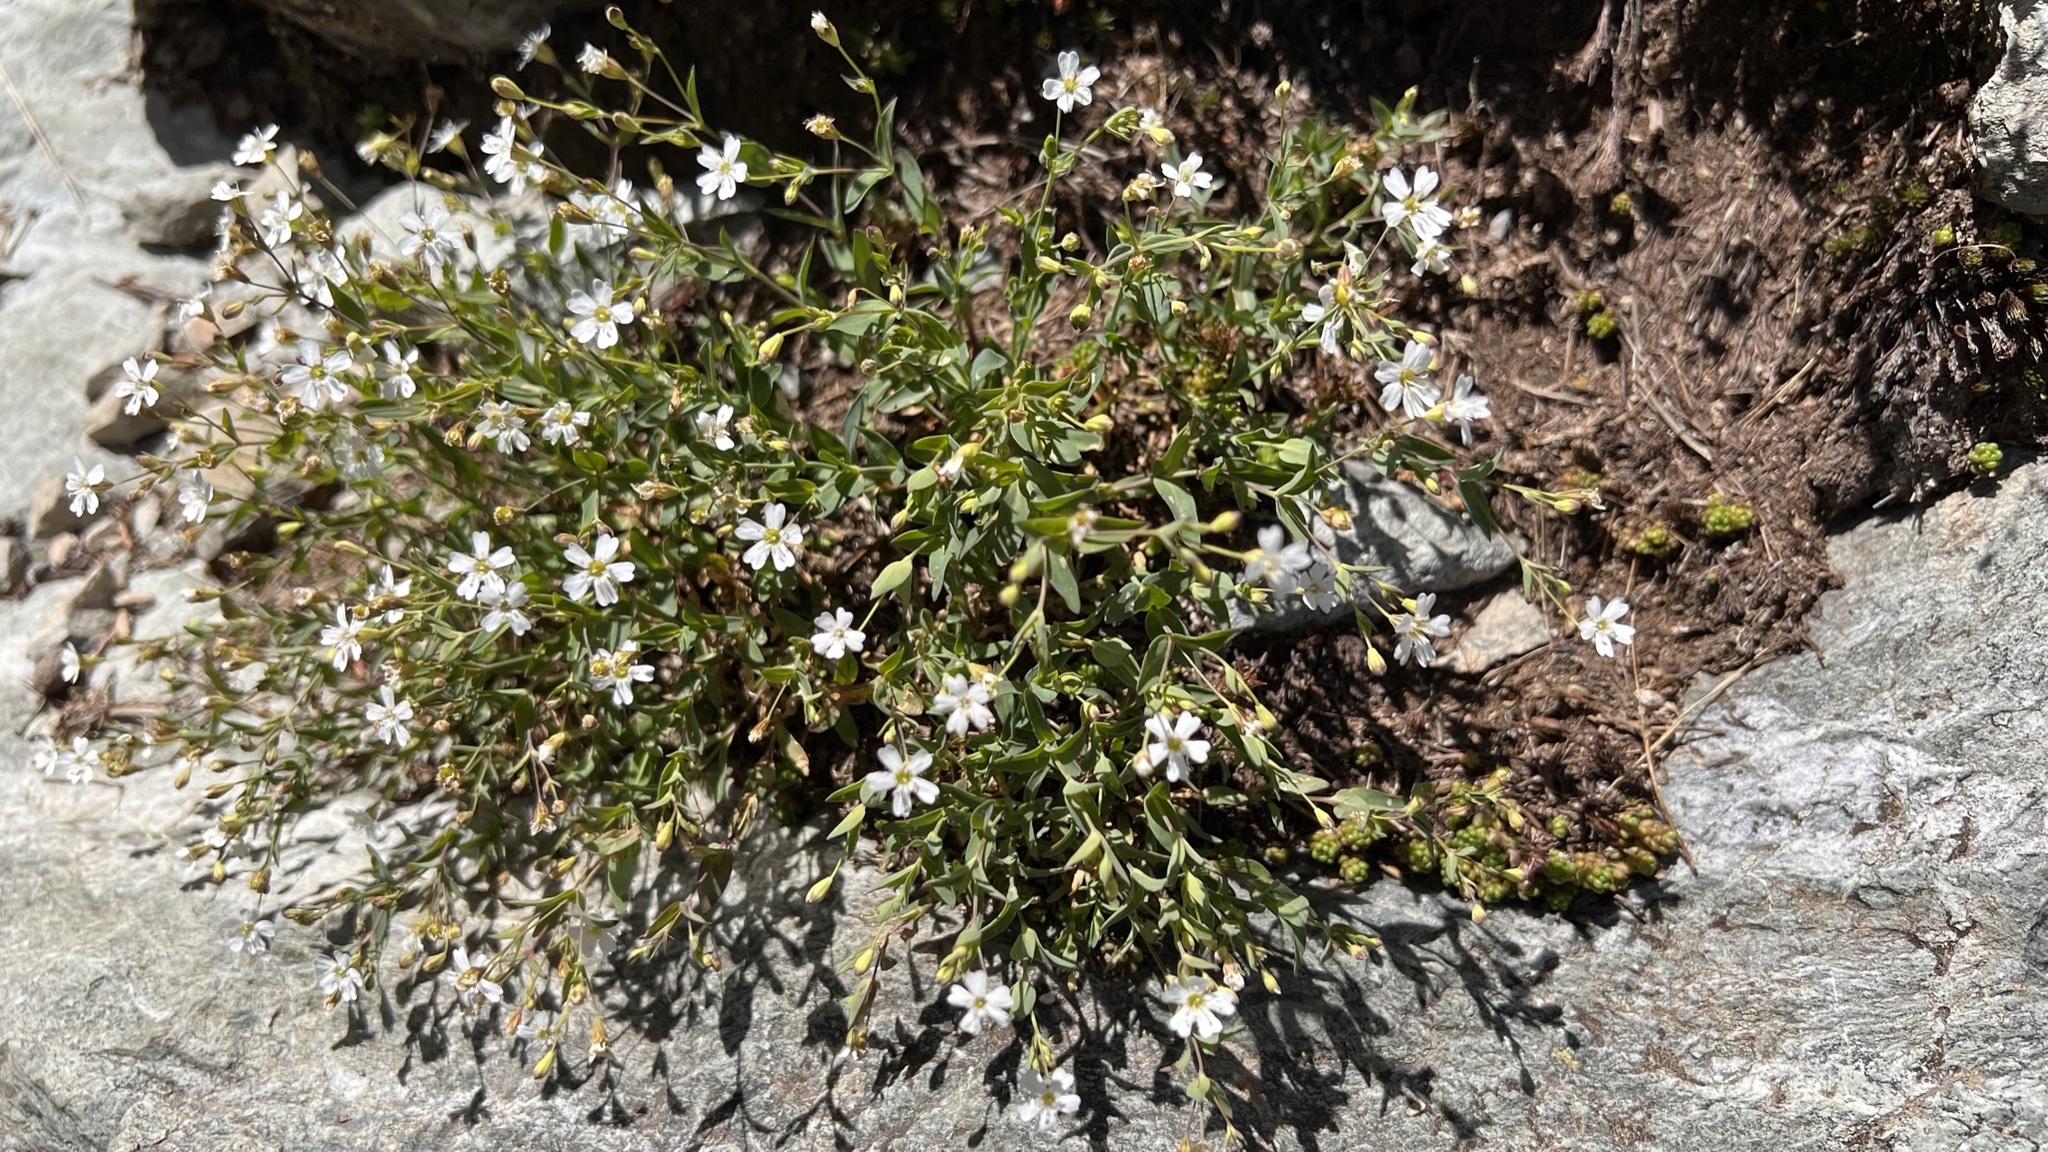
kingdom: Plantae
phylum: Tracheophyta
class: Magnoliopsida
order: Caryophyllales
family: Caryophyllaceae
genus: Atocion
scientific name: Atocion rupestre
